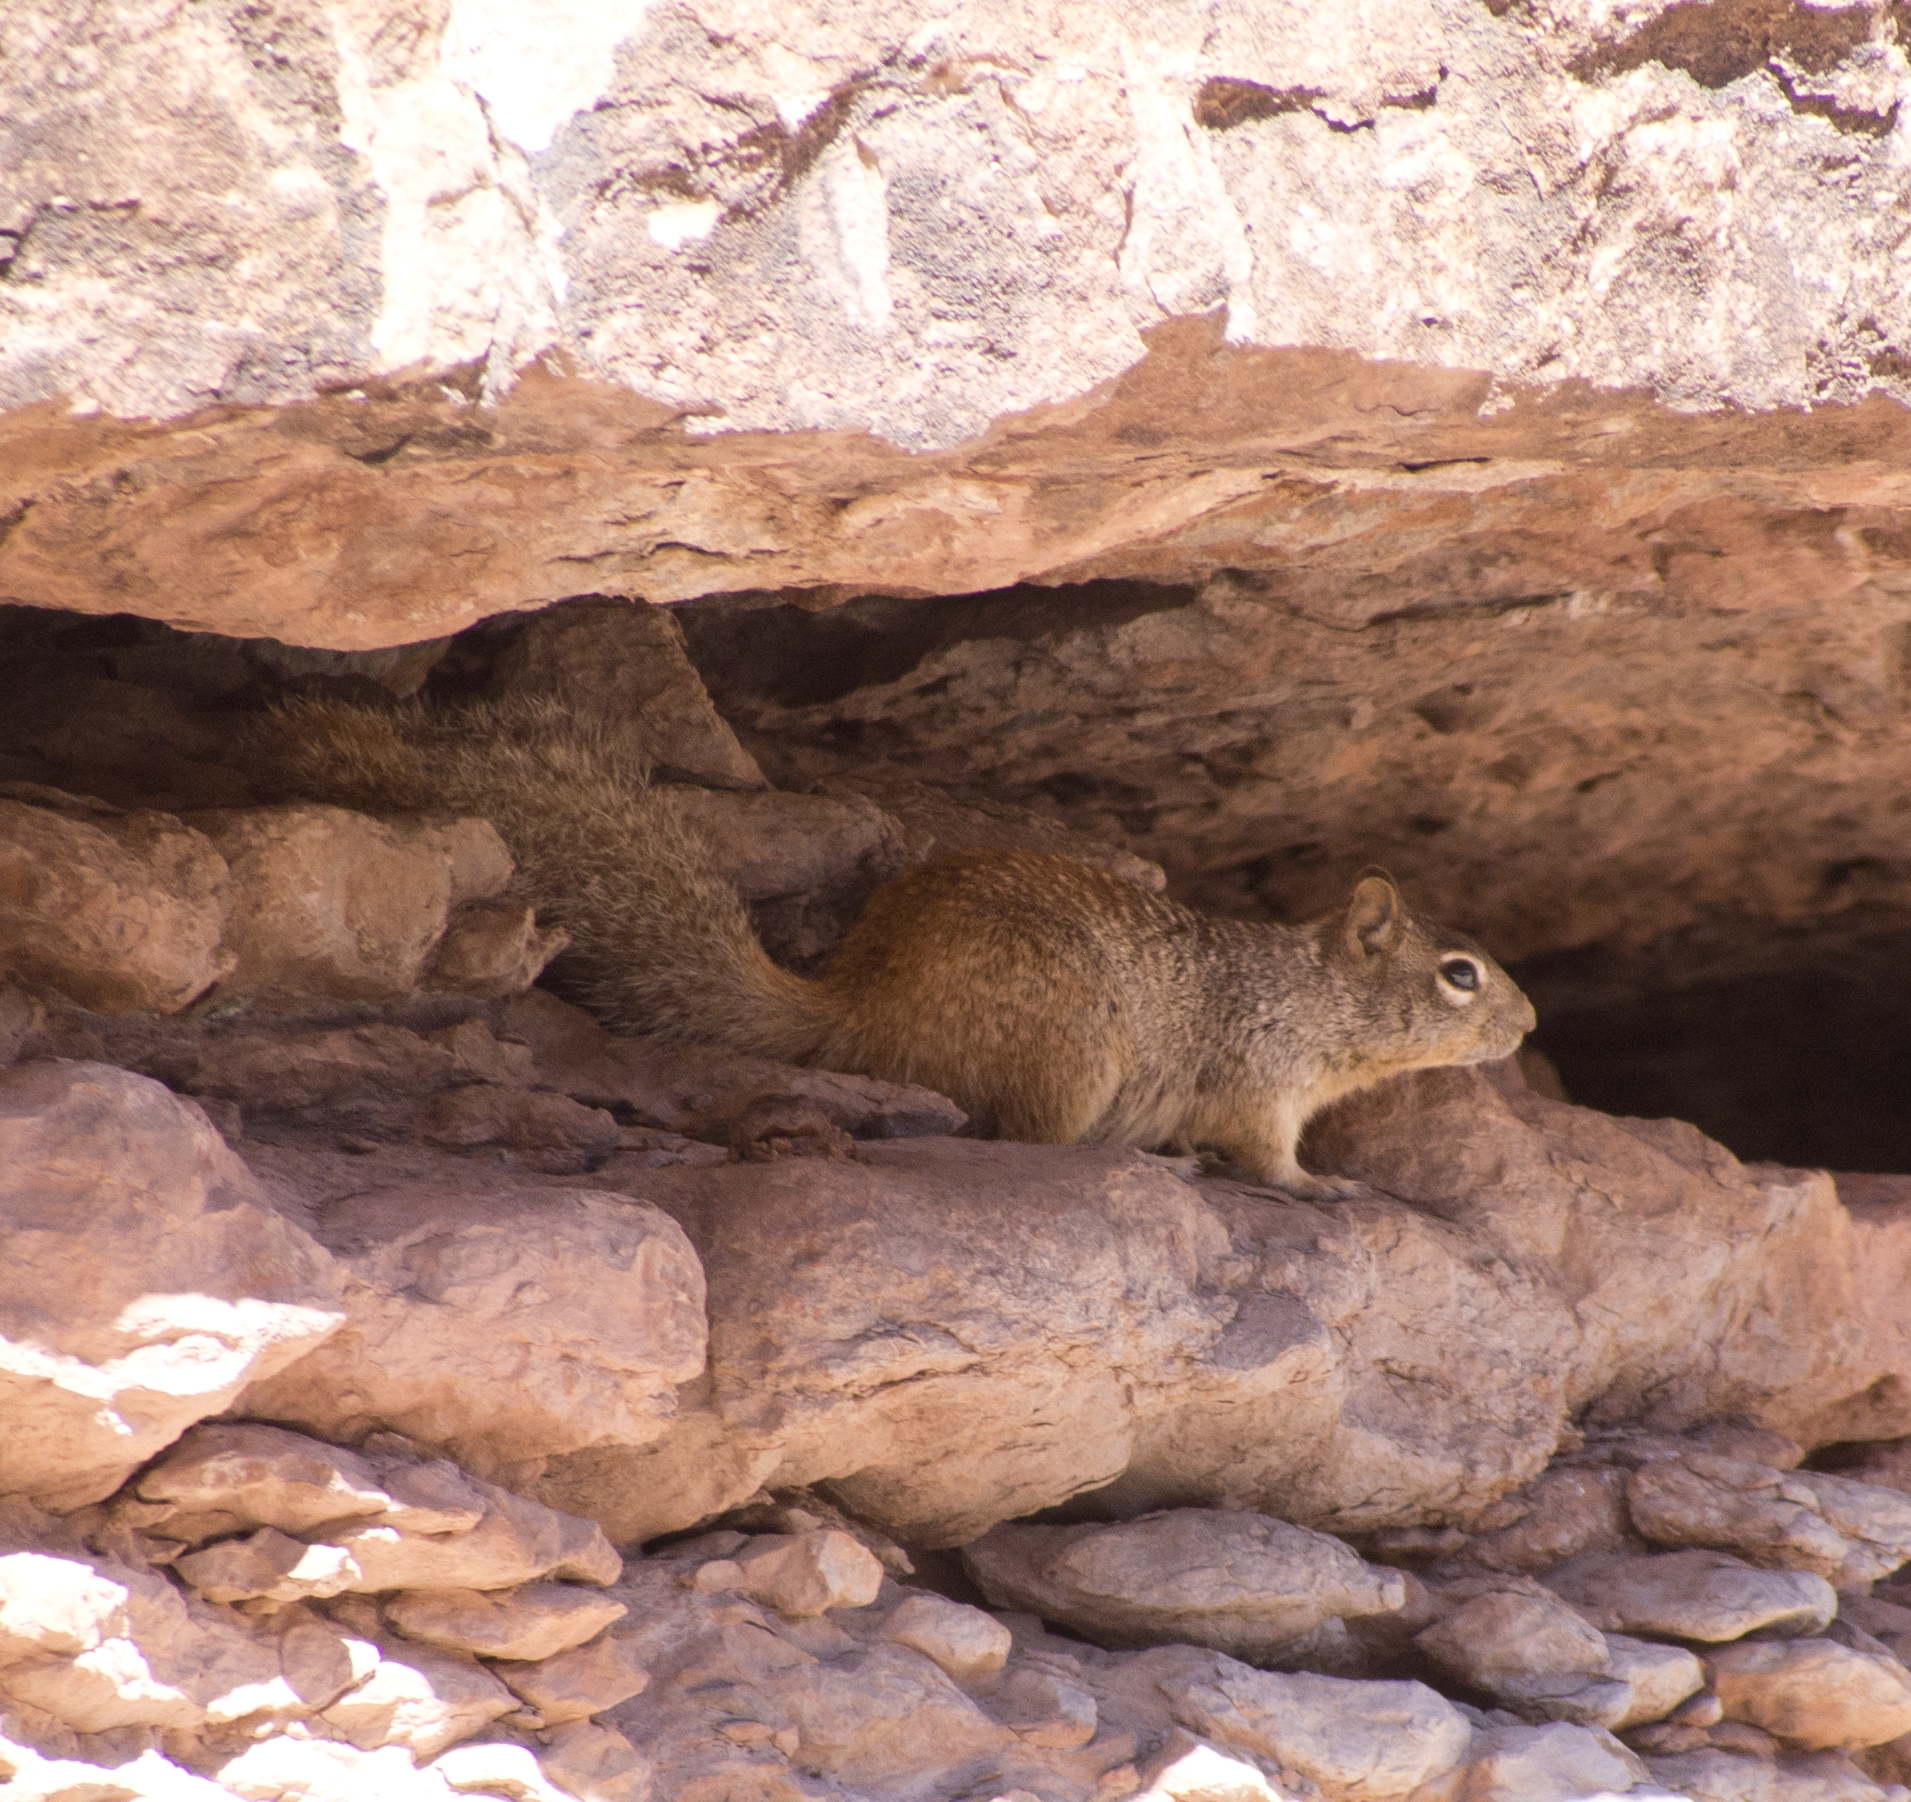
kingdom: Animalia
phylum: Chordata
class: Mammalia
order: Rodentia
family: Sciuridae
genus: Otospermophilus
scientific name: Otospermophilus variegatus
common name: Rock squirrel
